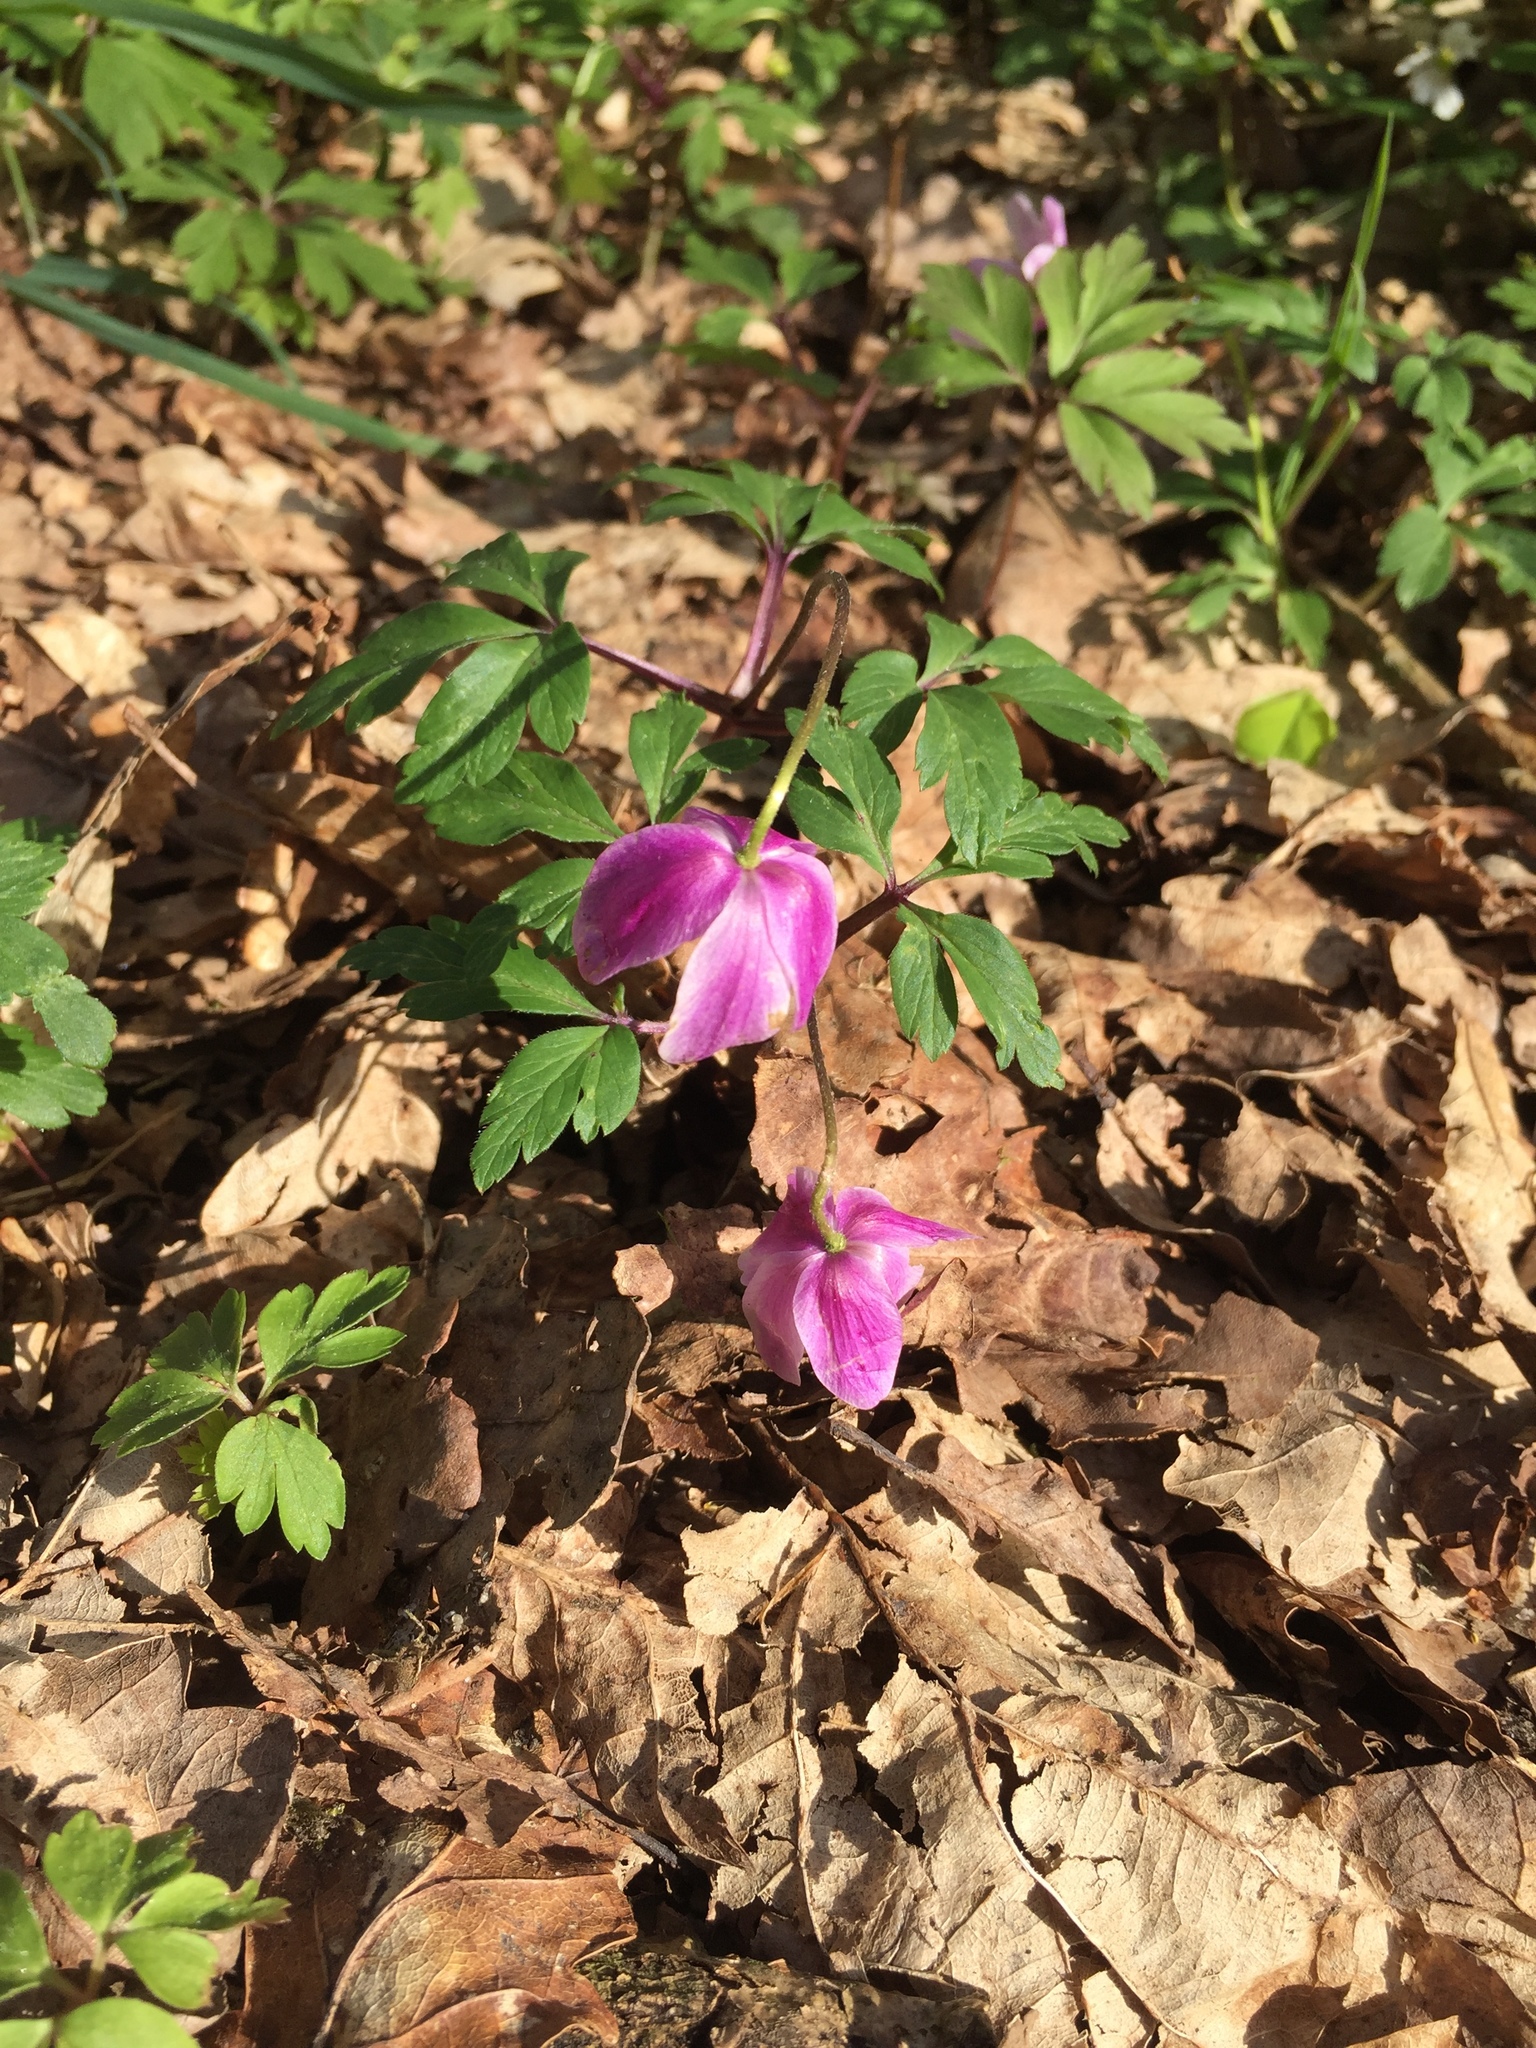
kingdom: Plantae
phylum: Tracheophyta
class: Magnoliopsida
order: Ranunculales
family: Ranunculaceae
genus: Anemone
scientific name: Anemone nemorosa
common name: Wood anemone
